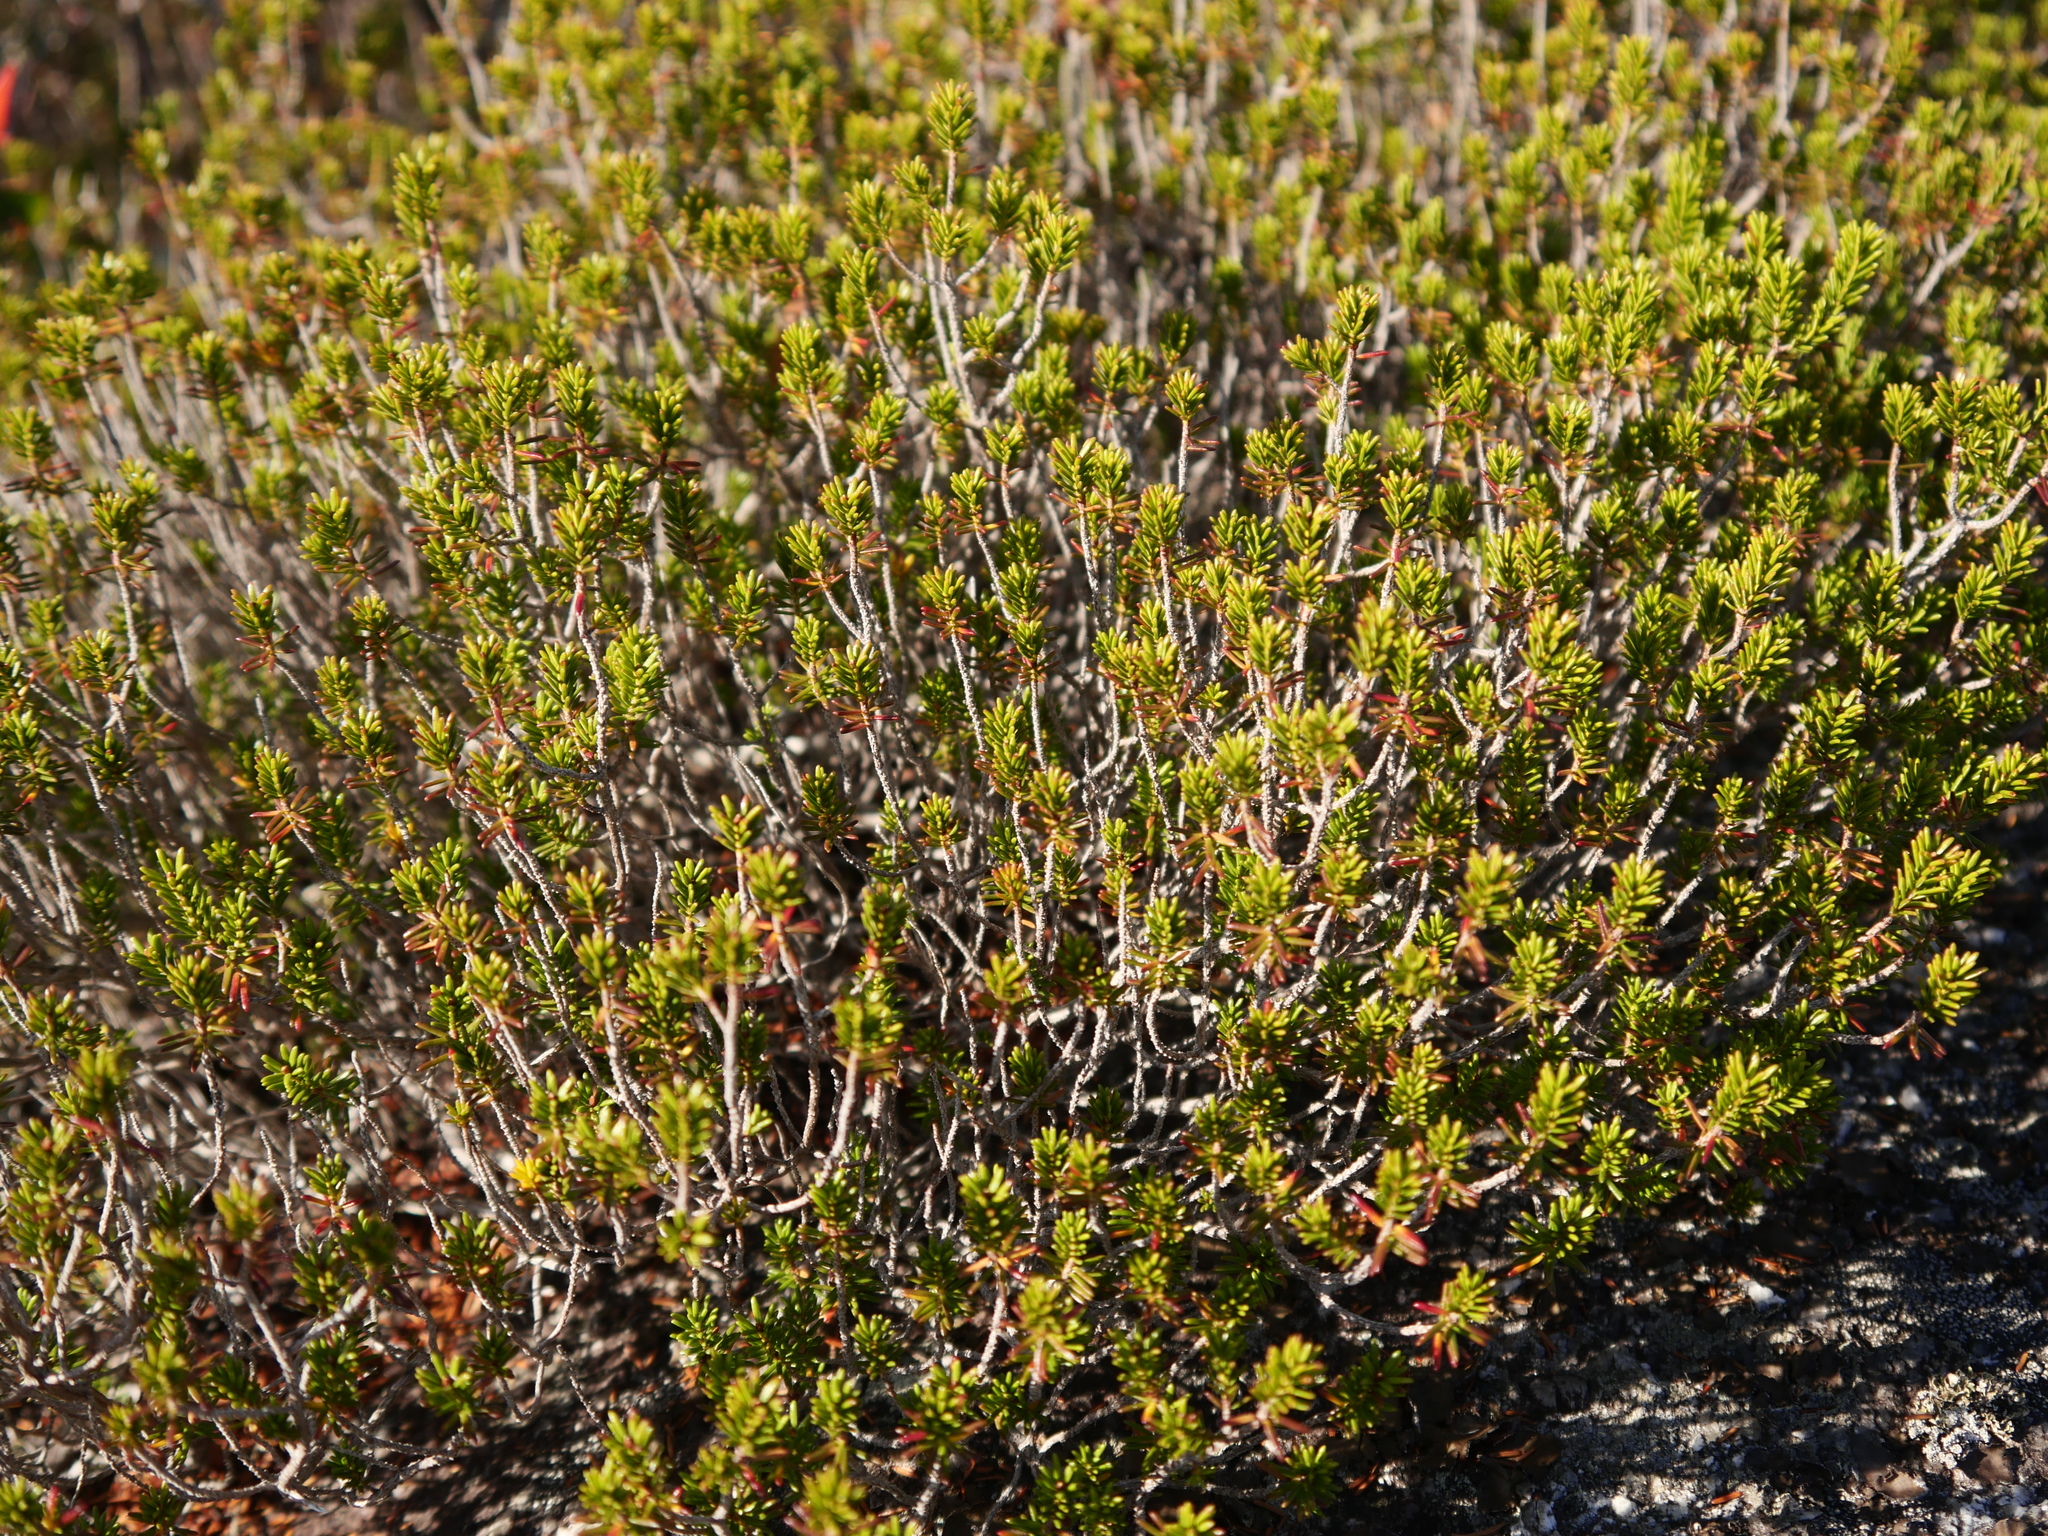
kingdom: Plantae
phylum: Tracheophyta
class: Magnoliopsida
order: Ericales
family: Ericaceae
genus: Corema
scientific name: Corema conradii
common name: Broom-crowberry
